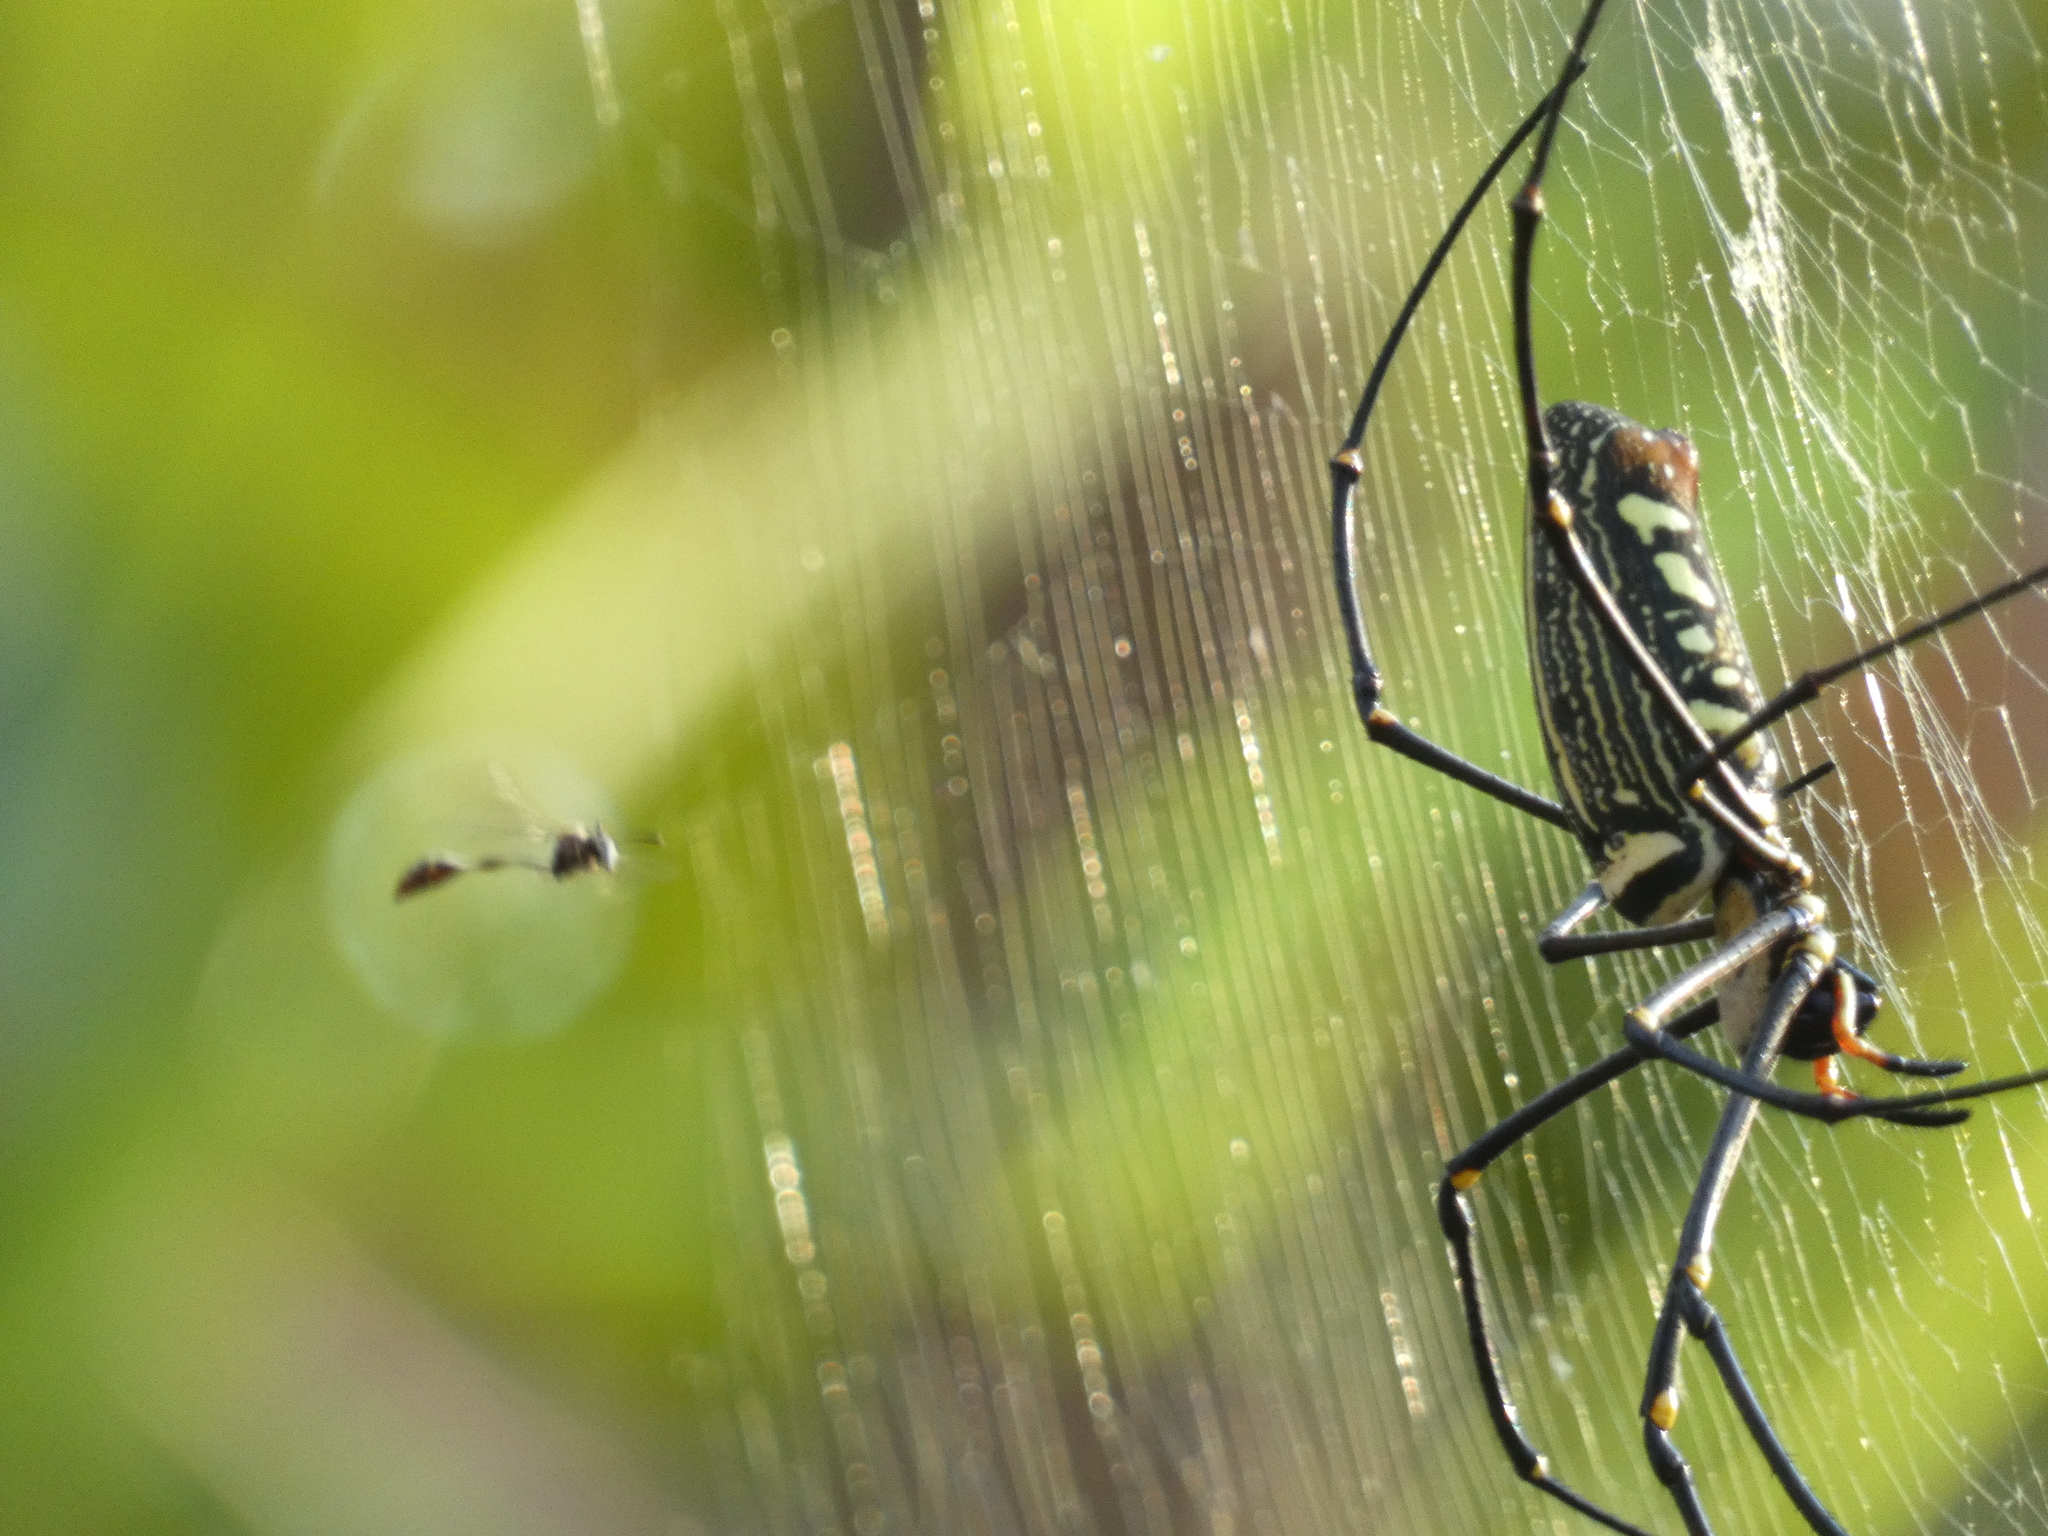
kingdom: Animalia
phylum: Arthropoda
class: Arachnida
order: Araneae
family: Araneidae
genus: Nephila
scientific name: Nephila pilipes
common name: Giant golden orb weaver
